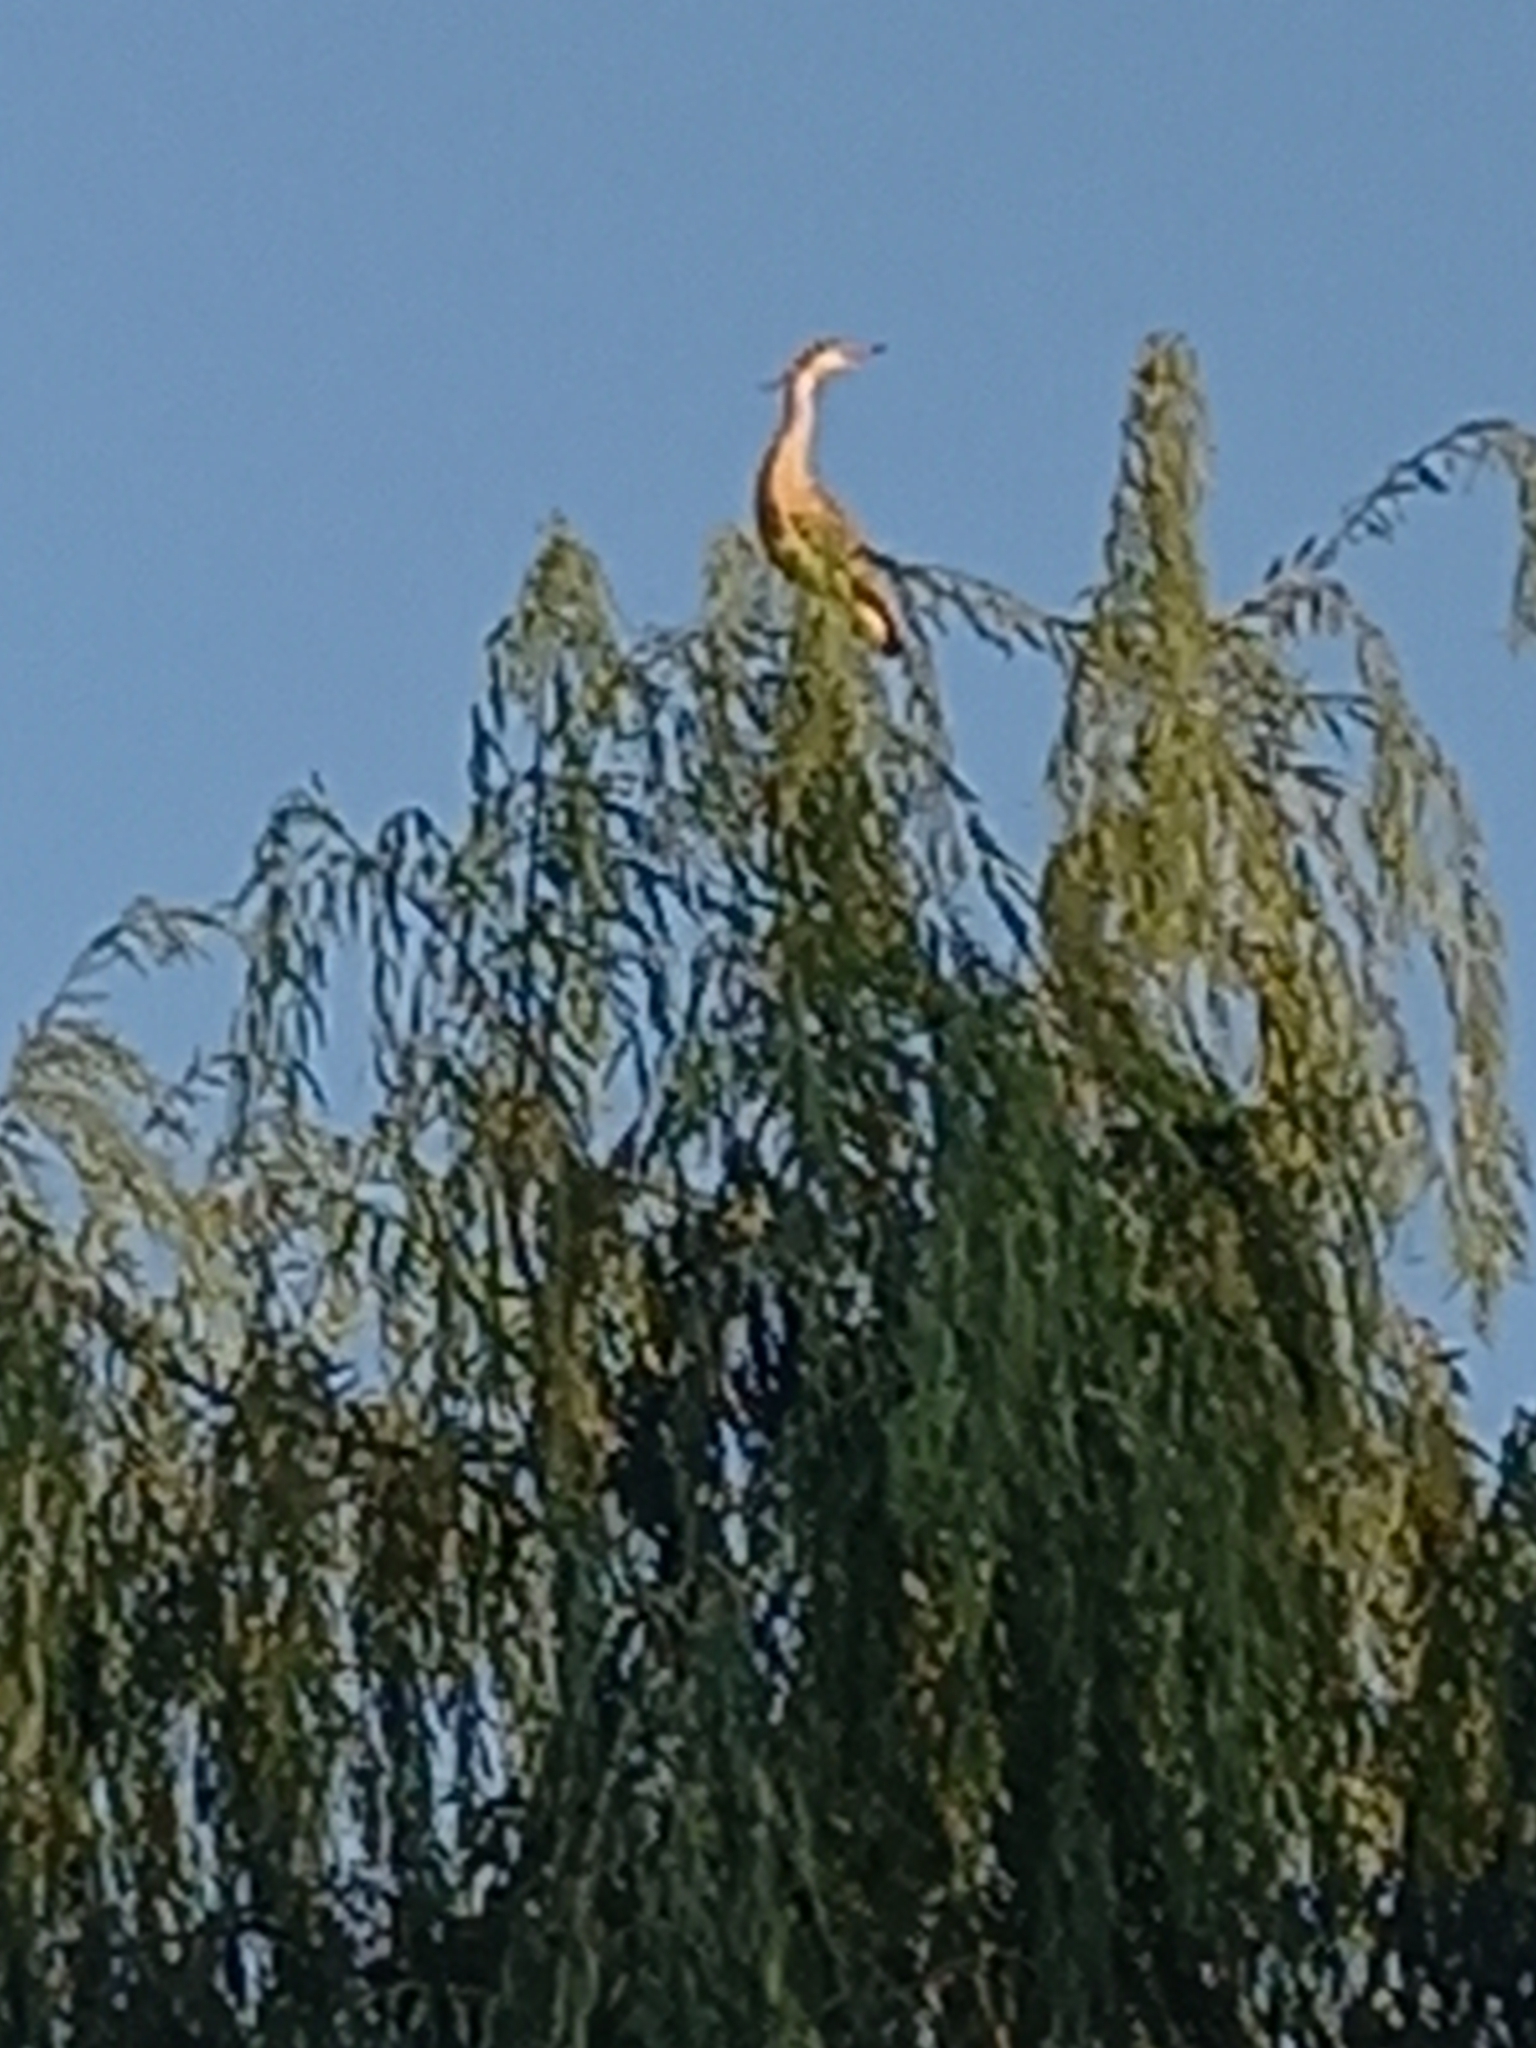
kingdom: Animalia
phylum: Chordata
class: Aves
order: Pelecaniformes
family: Ardeidae
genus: Syrigma
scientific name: Syrigma sibilatrix
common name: Whistling heron
